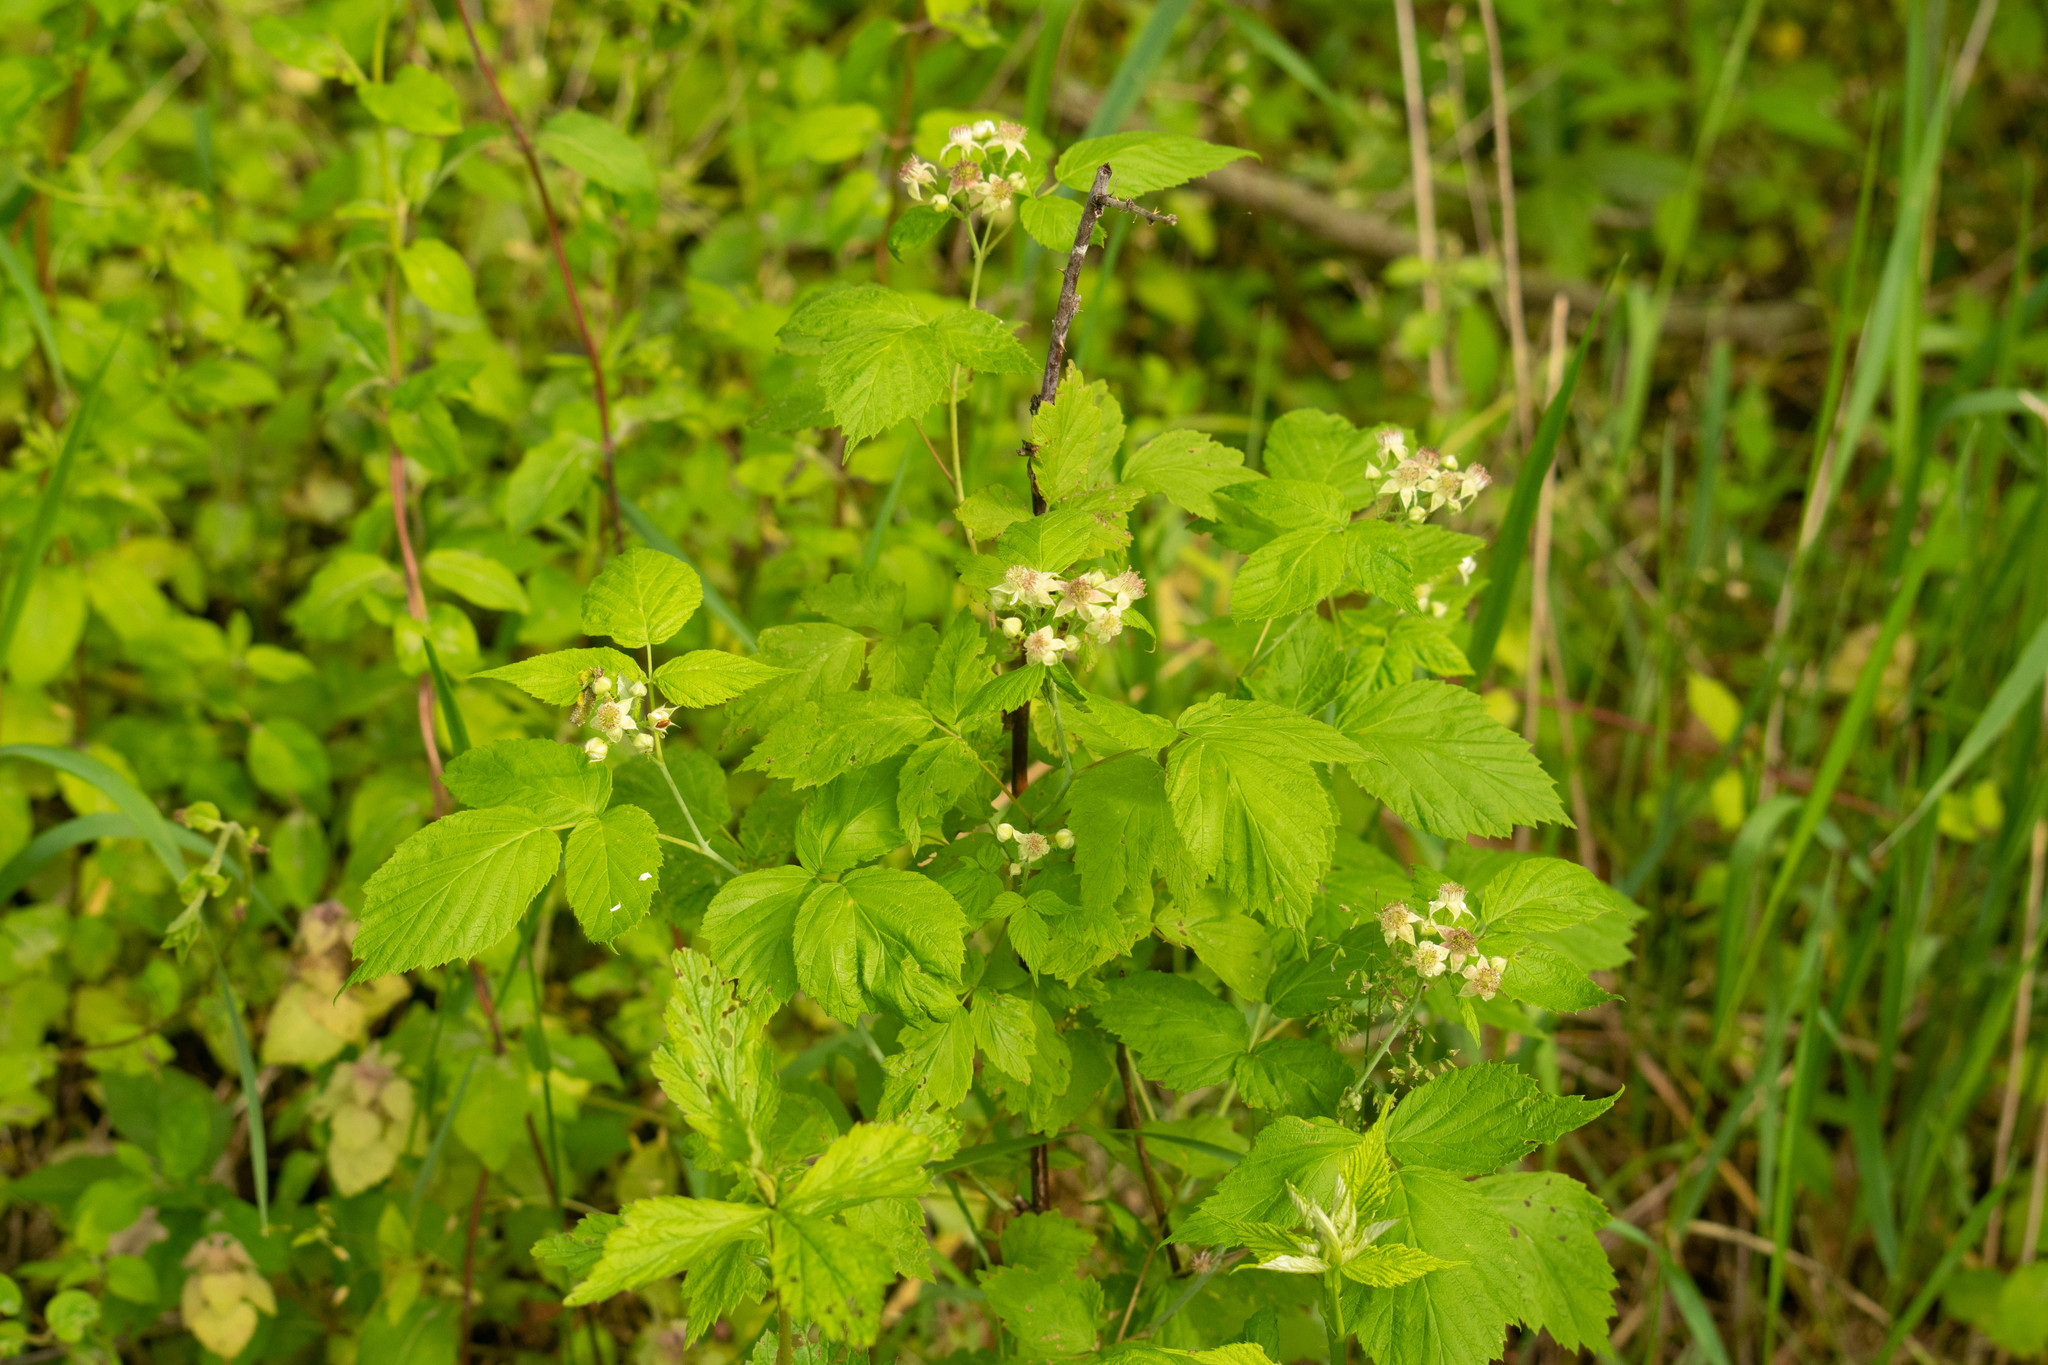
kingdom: Plantae
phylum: Tracheophyta
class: Magnoliopsida
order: Rosales
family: Rosaceae
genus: Rubus
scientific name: Rubus occidentalis
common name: Black raspberry
